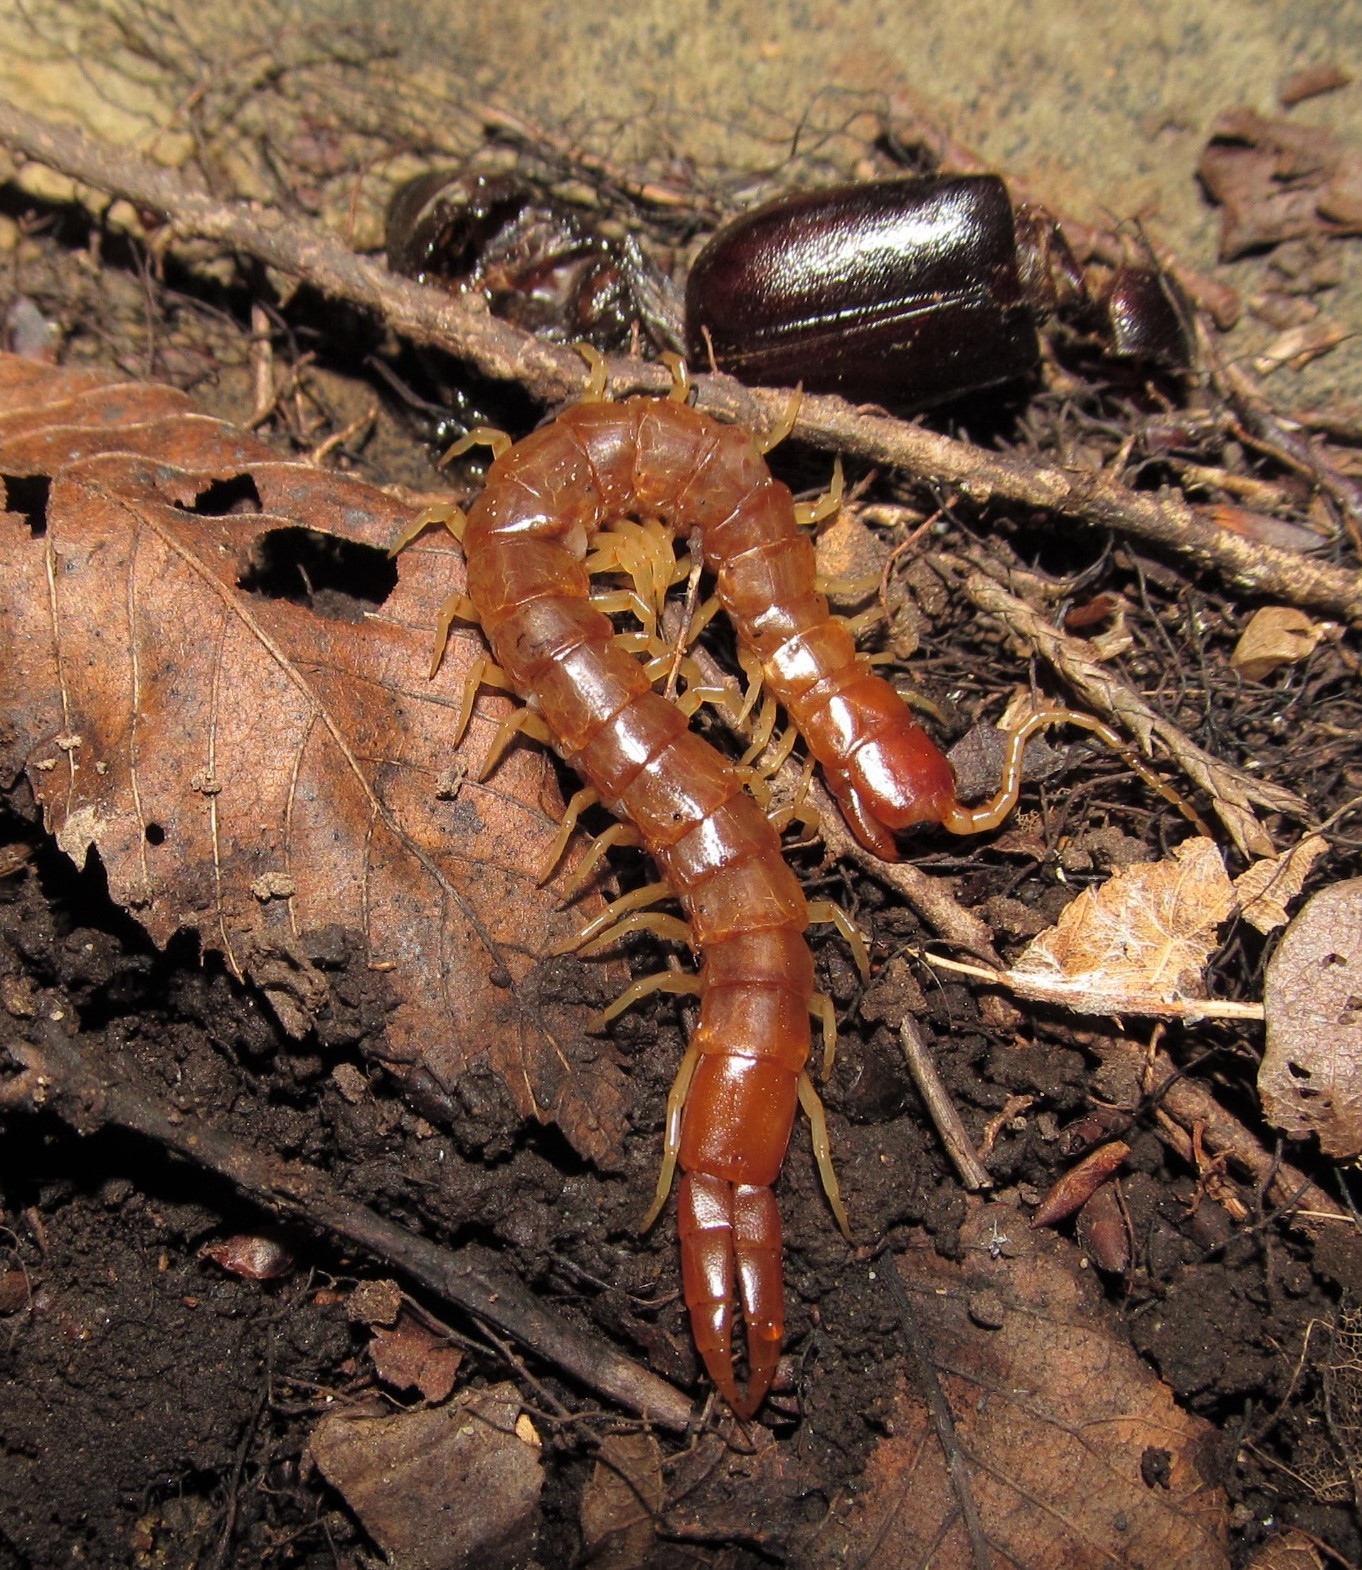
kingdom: Animalia
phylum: Arthropoda
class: Chilopoda
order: Scolopendromorpha
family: Cryptopidae
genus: Theatops
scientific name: Theatops spinicaudus
